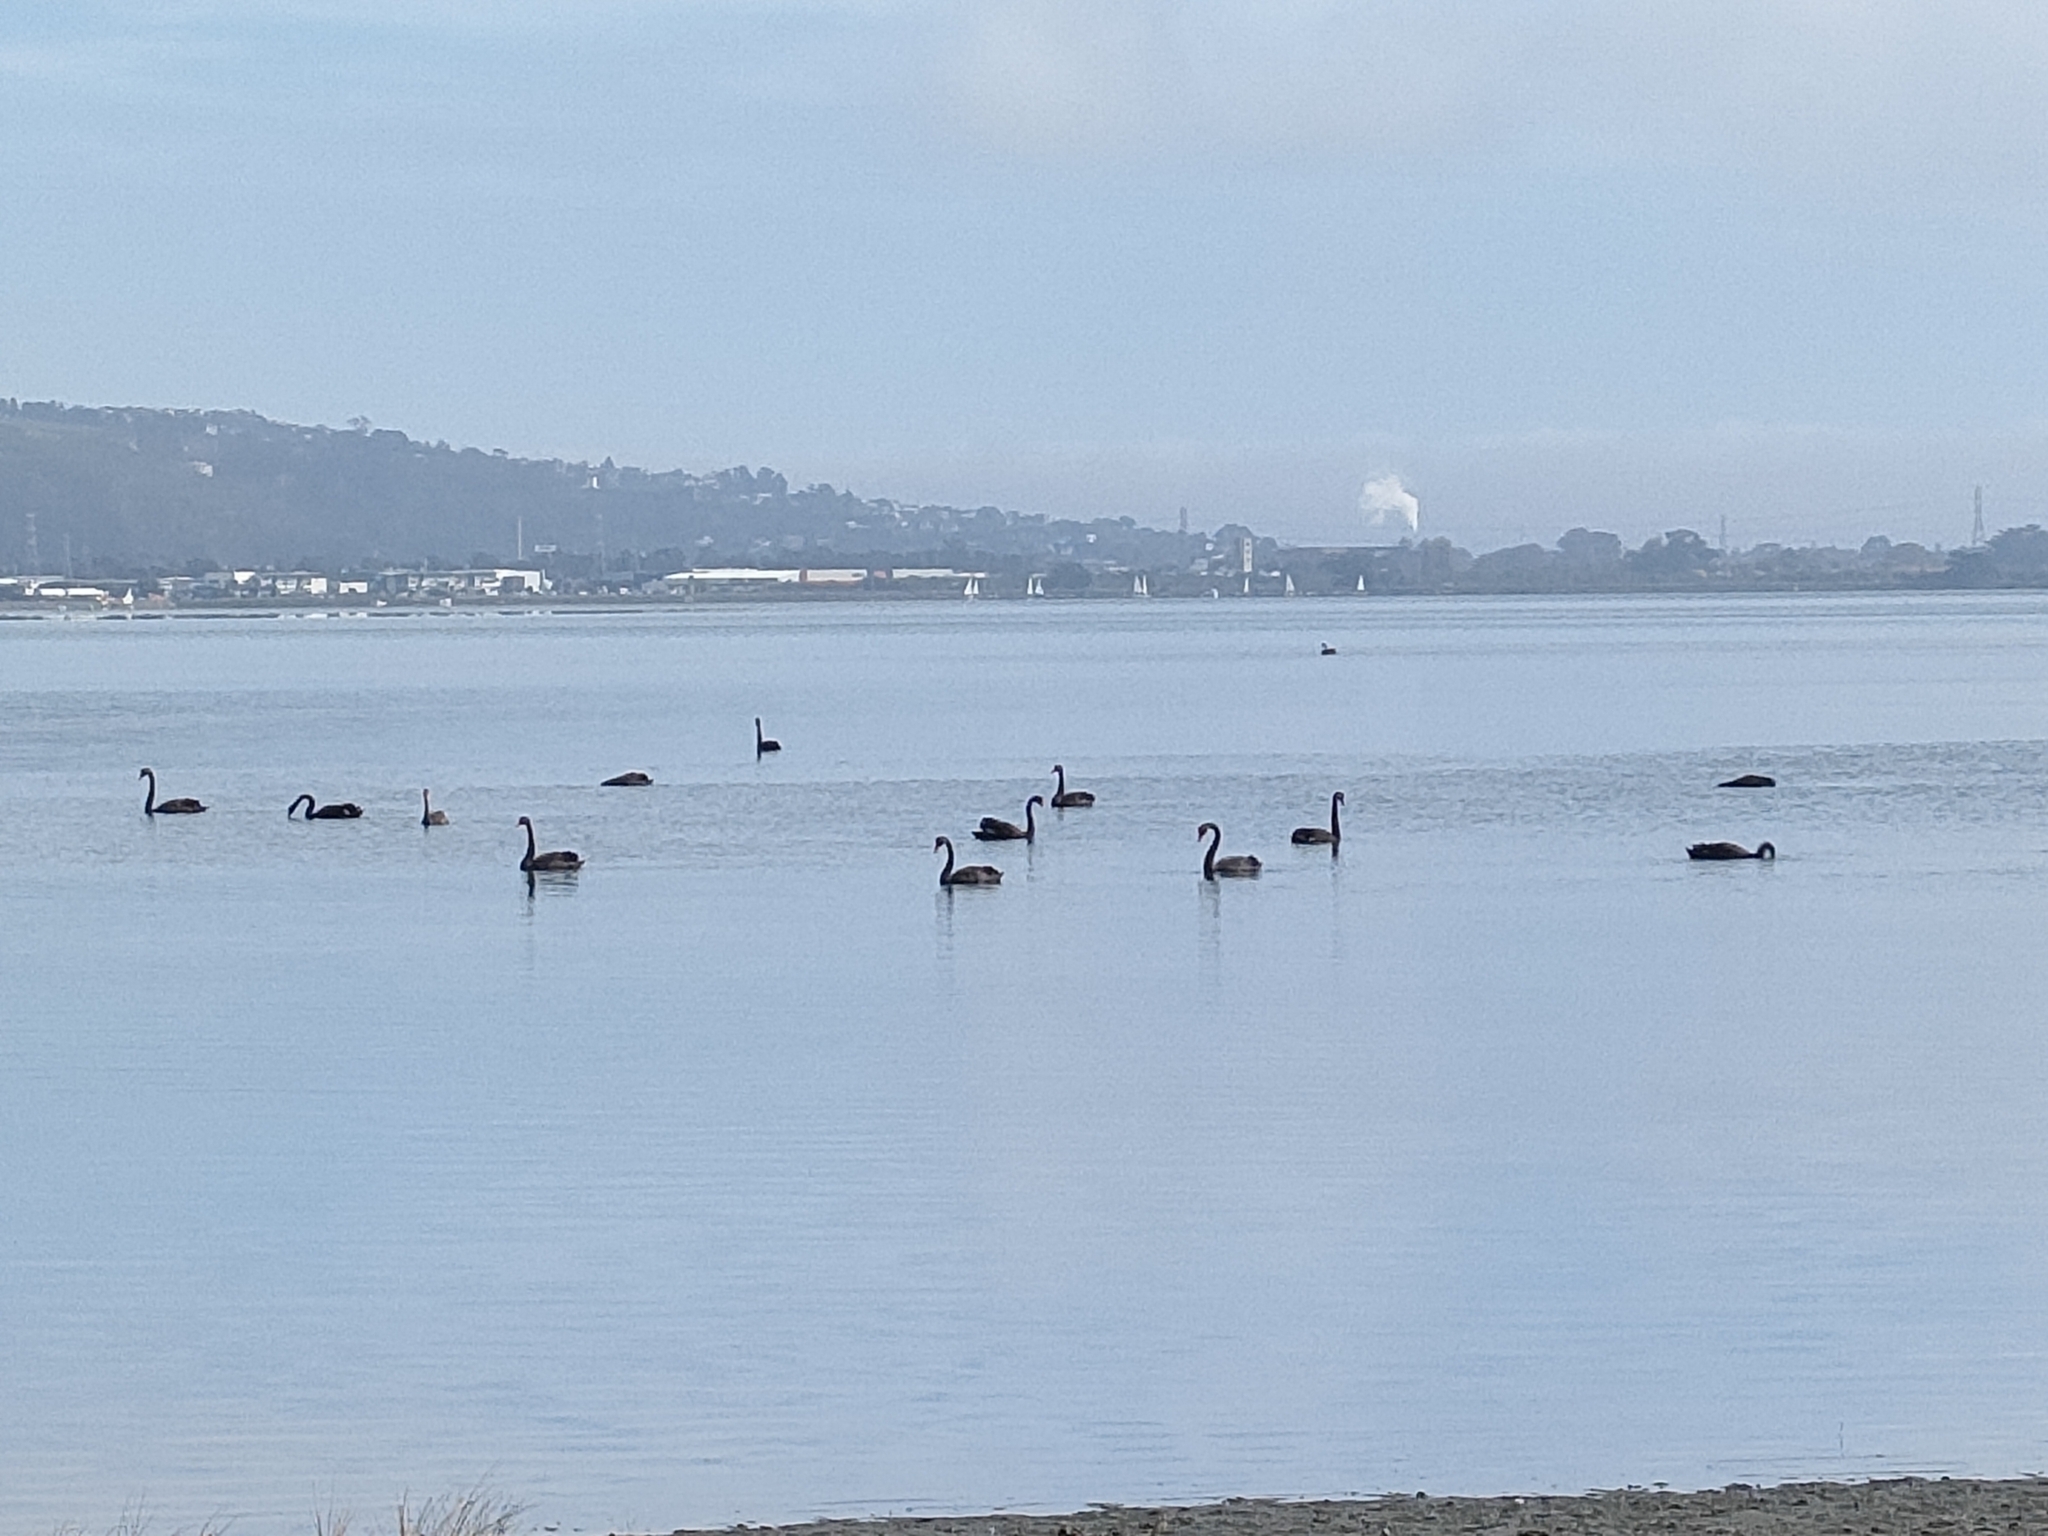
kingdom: Animalia
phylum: Chordata
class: Aves
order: Anseriformes
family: Anatidae
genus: Cygnus
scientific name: Cygnus atratus
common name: Black swan
